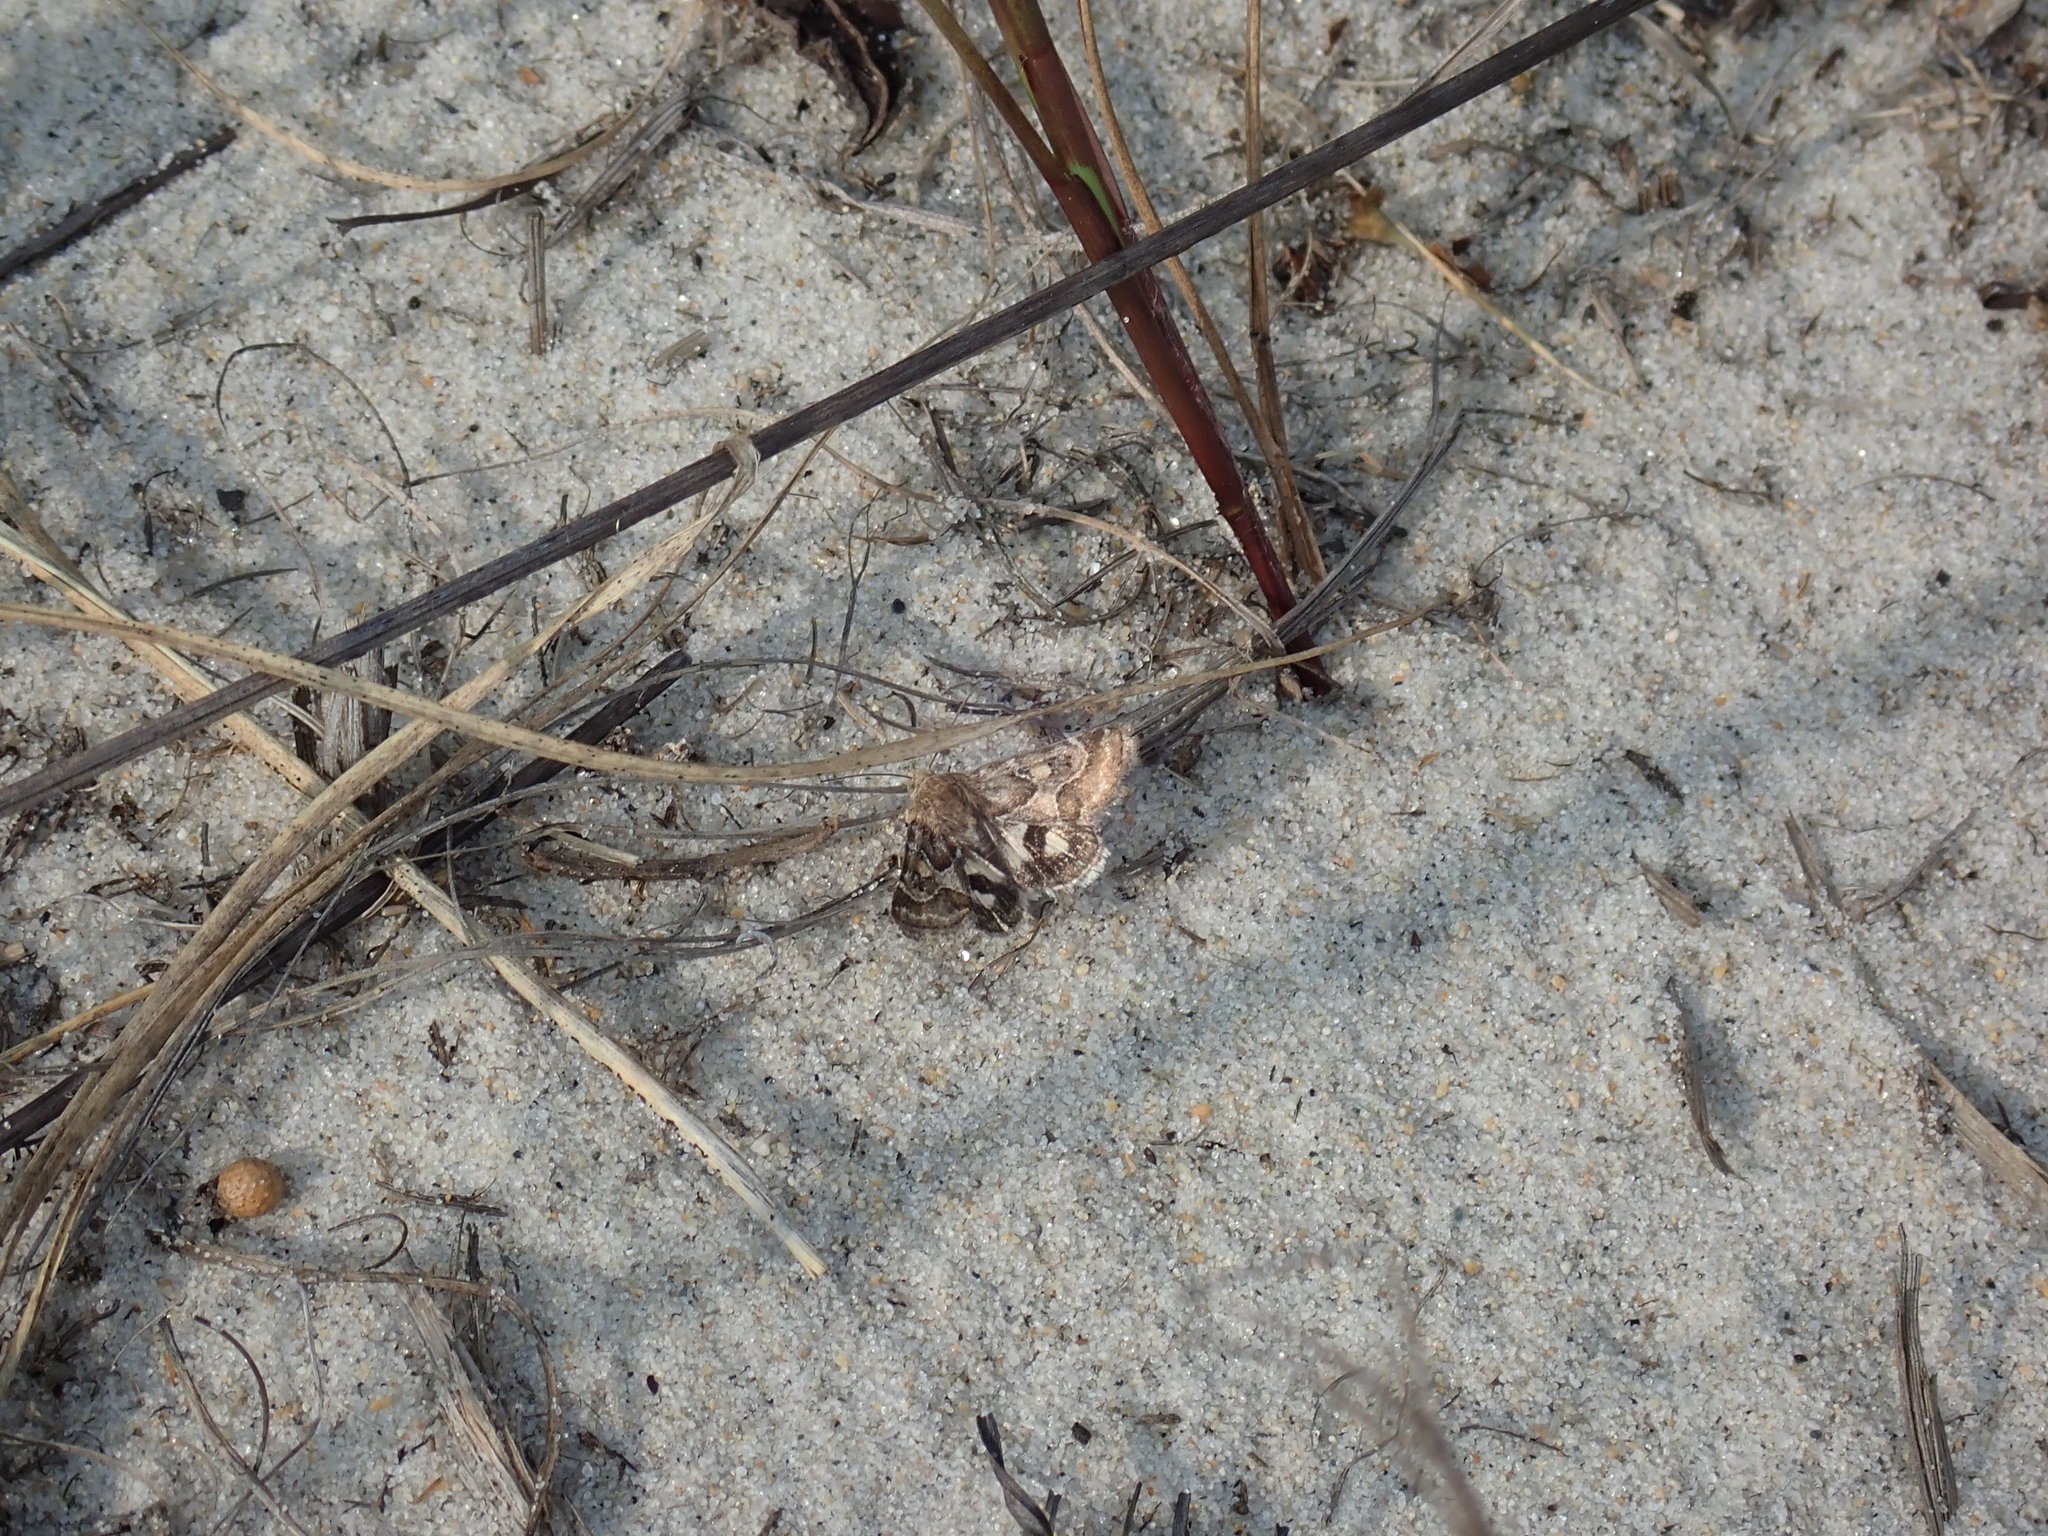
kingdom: Animalia
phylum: Arthropoda
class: Insecta
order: Lepidoptera
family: Noctuidae
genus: Schinia
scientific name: Schinia spinosae
